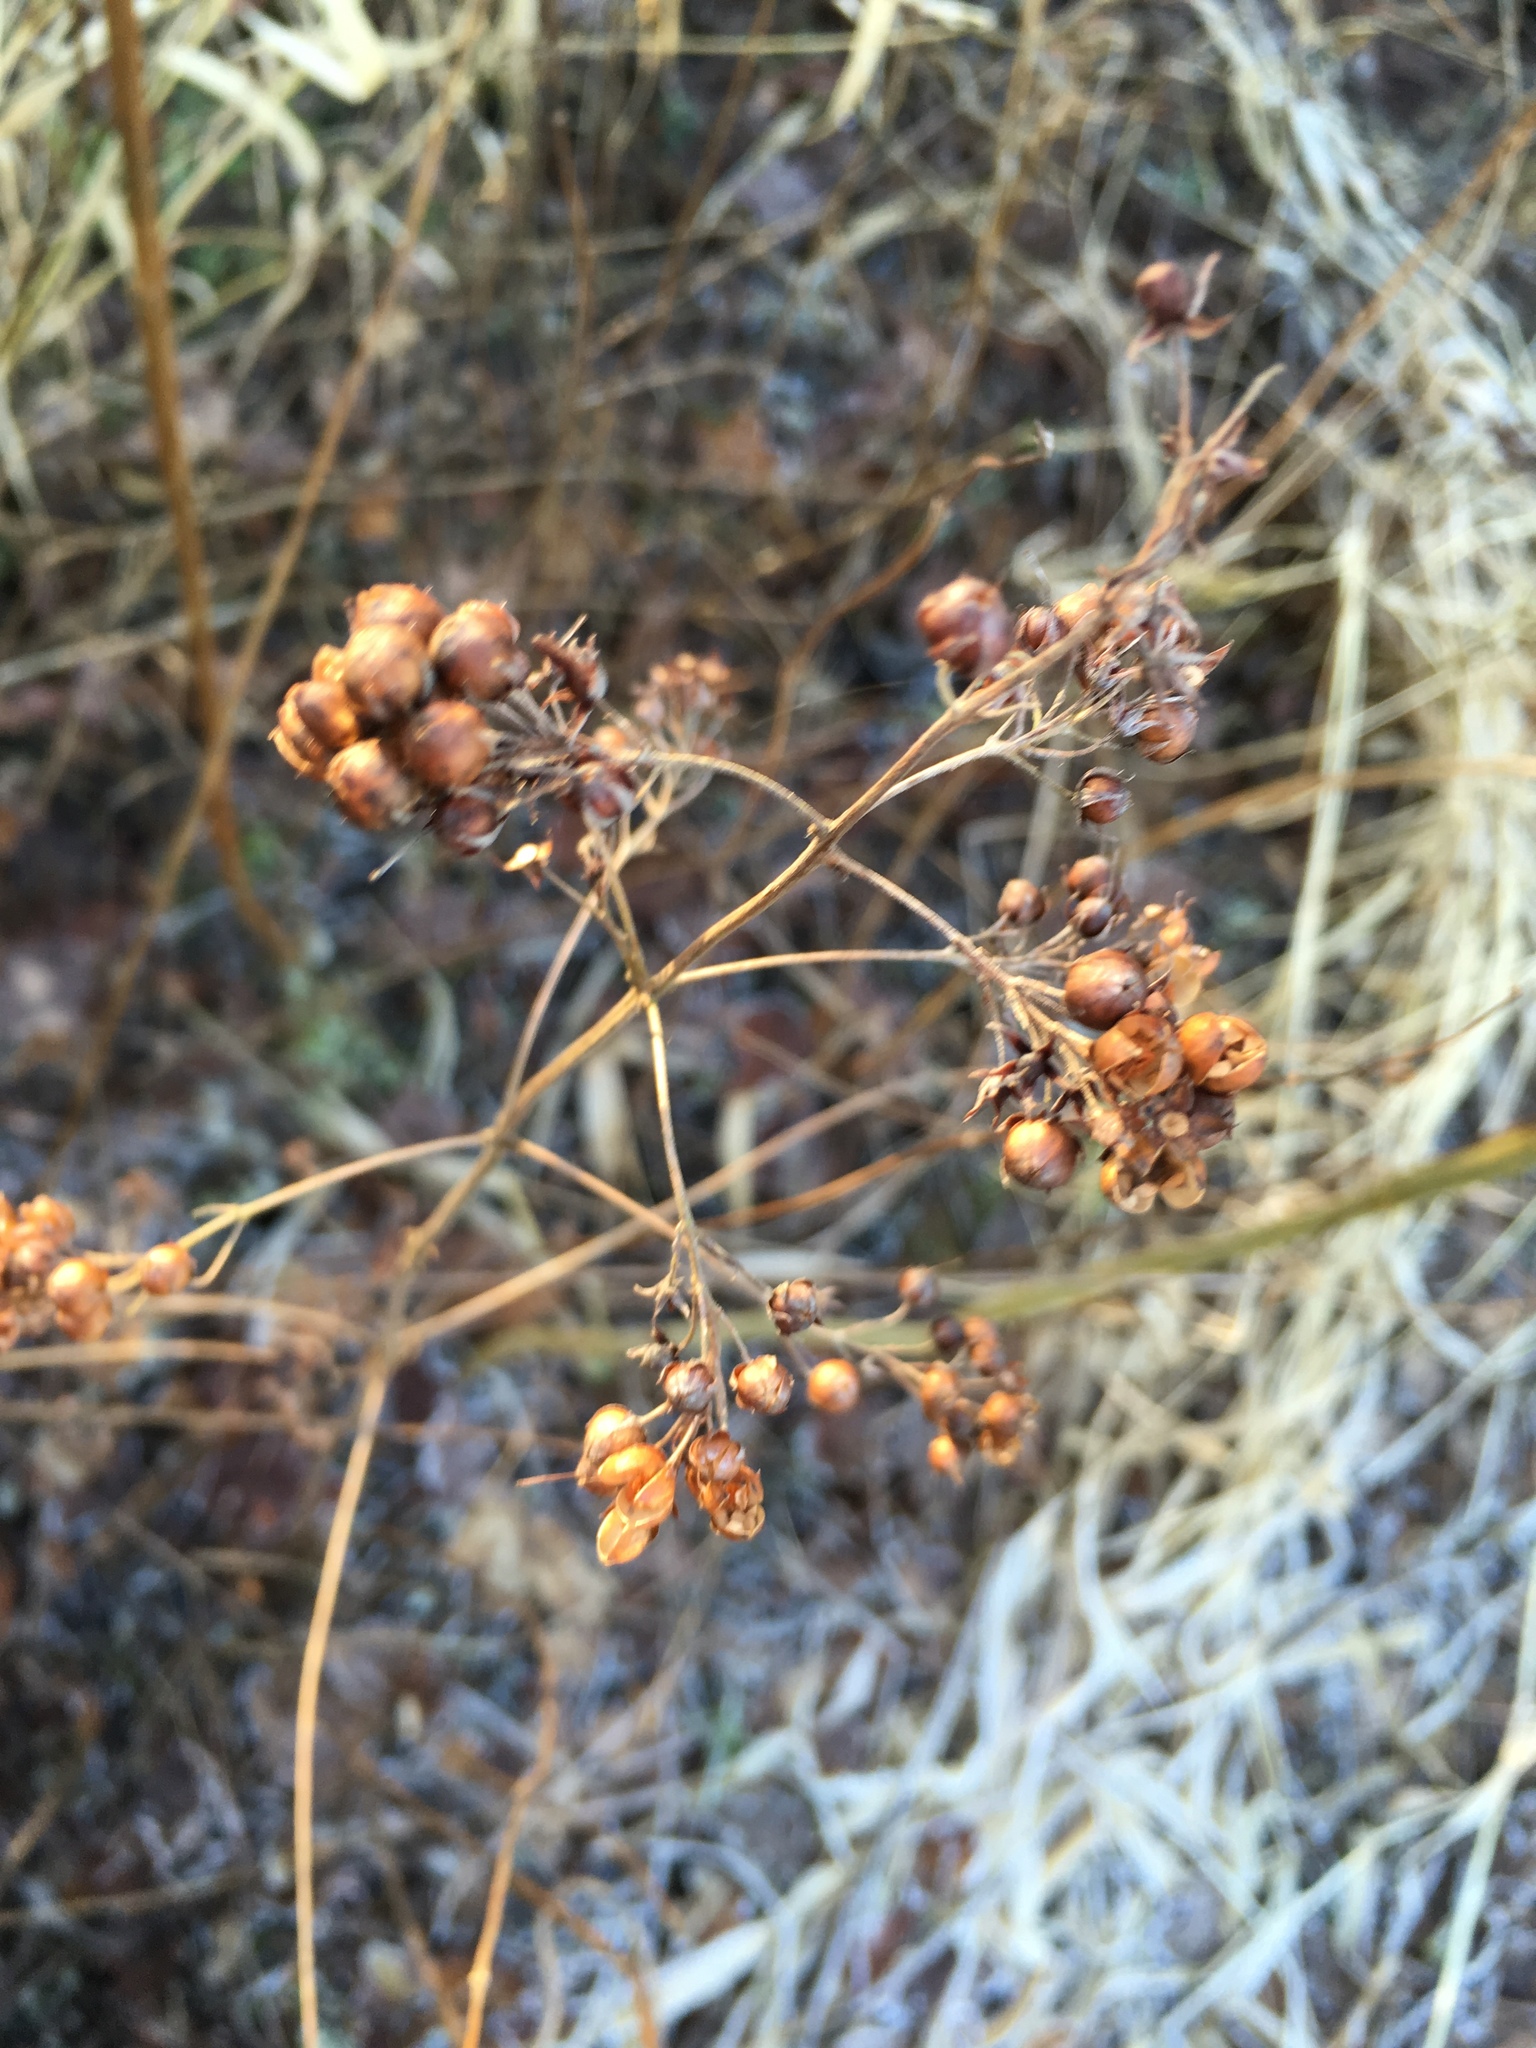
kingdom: Plantae
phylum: Tracheophyta
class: Magnoliopsida
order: Ericales
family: Primulaceae
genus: Lysimachia
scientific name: Lysimachia vulgaris
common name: Yellow loosestrife
